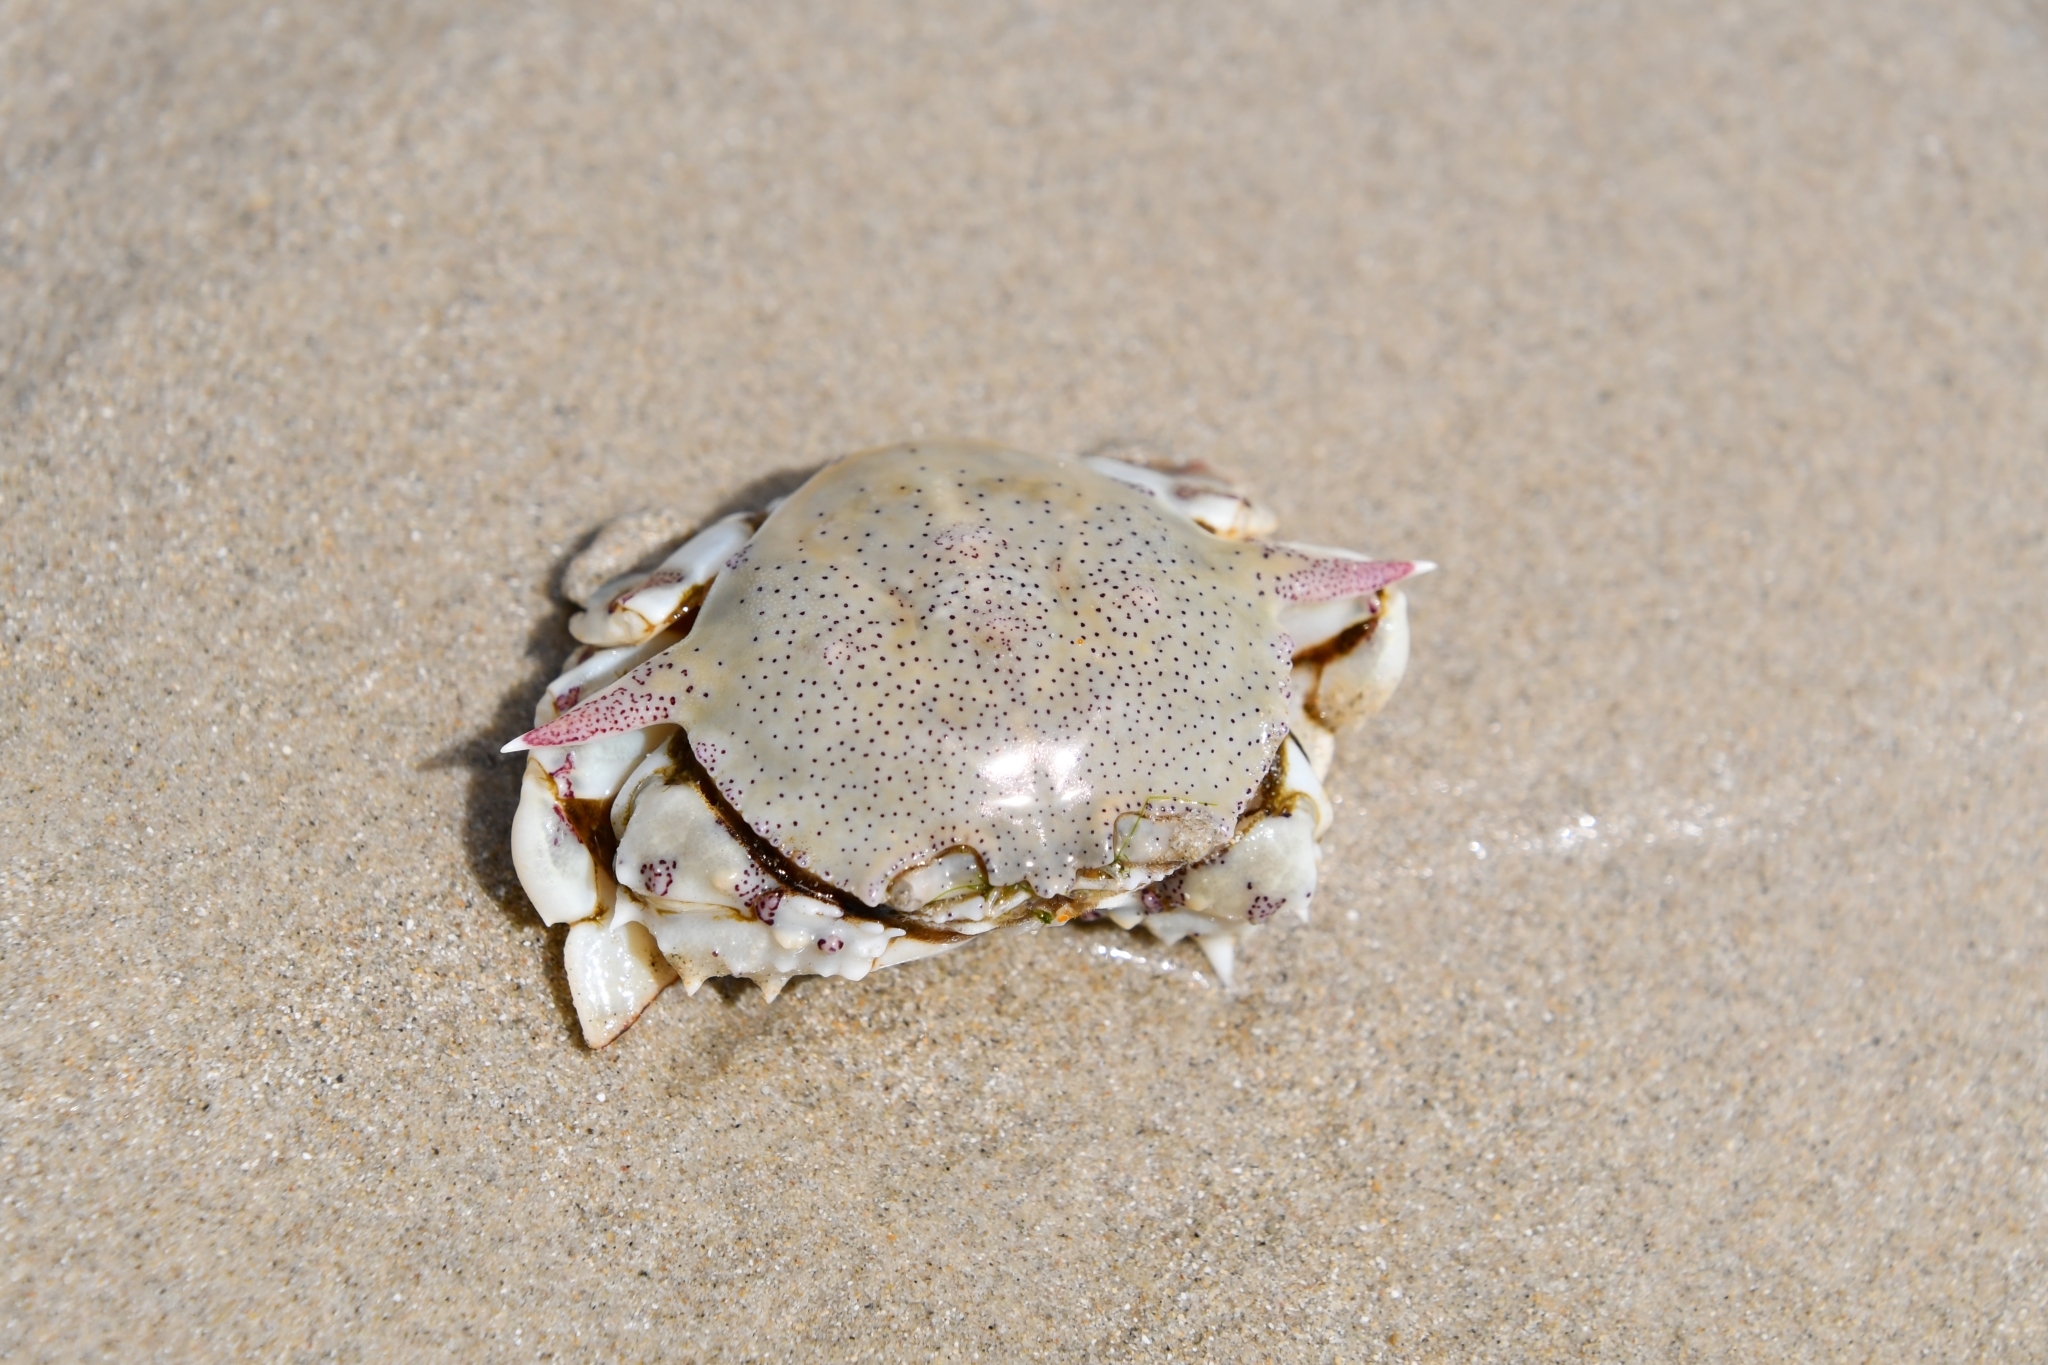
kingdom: Animalia
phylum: Arthropoda
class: Malacostraca
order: Decapoda
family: Matutidae
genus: Matuta
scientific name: Matuta victor
